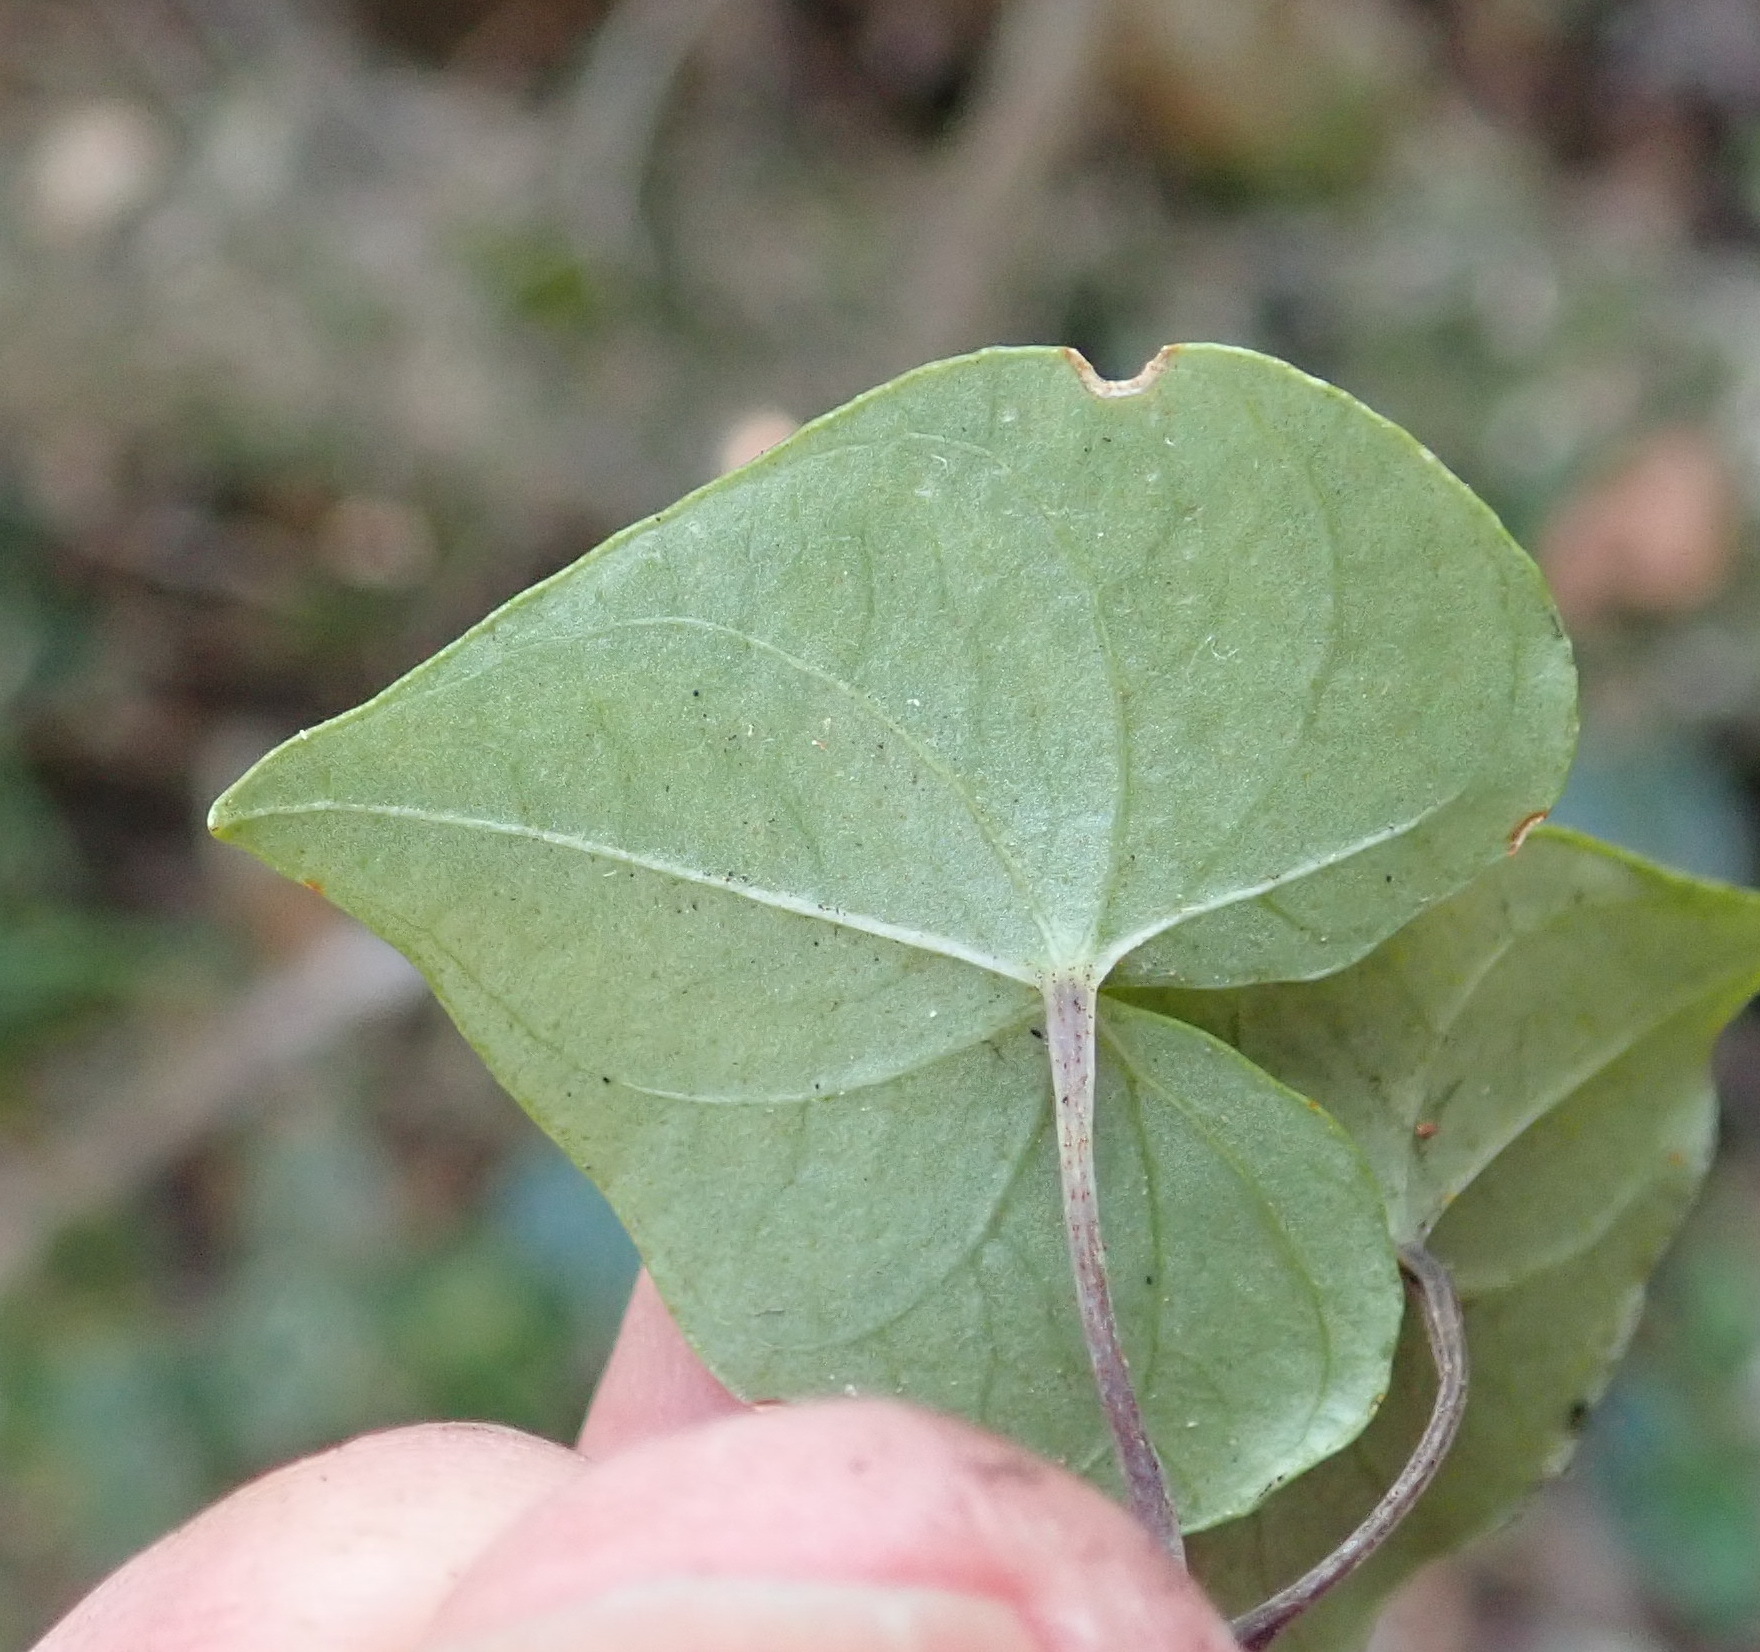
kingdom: Plantae
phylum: Tracheophyta
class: Liliopsida
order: Dioscoreales
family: Dioscoreaceae
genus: Dioscorea
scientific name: Dioscorea mundii
